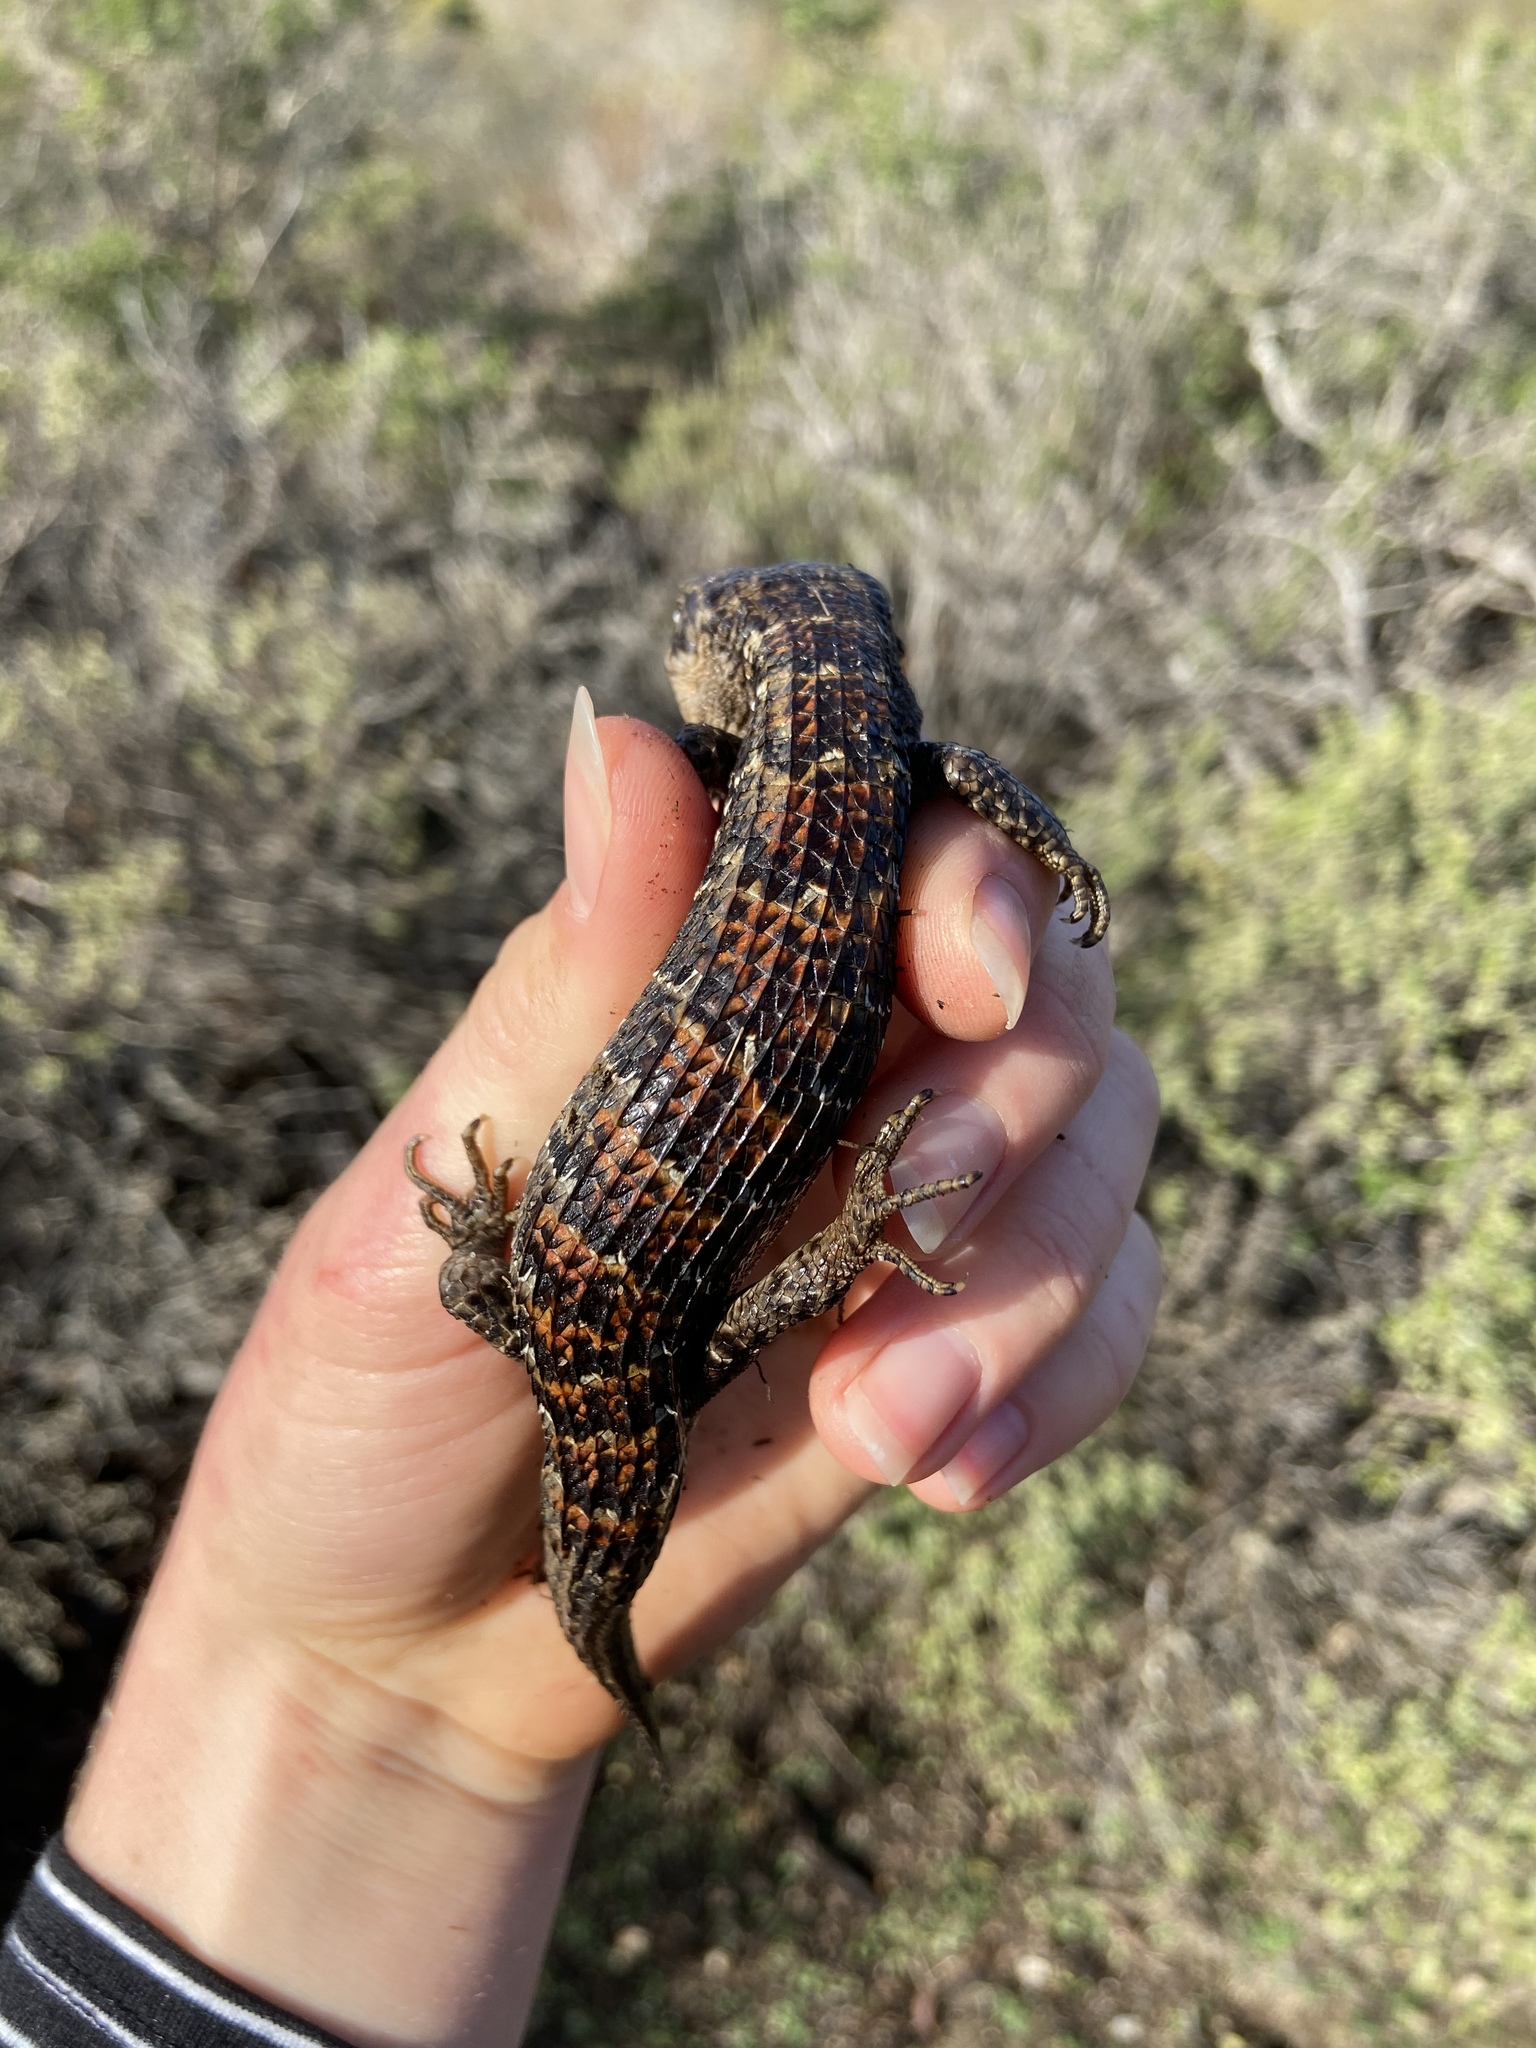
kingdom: Animalia
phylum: Chordata
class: Squamata
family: Anguidae
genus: Elgaria
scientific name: Elgaria multicarinata
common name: Southern alligator lizard
